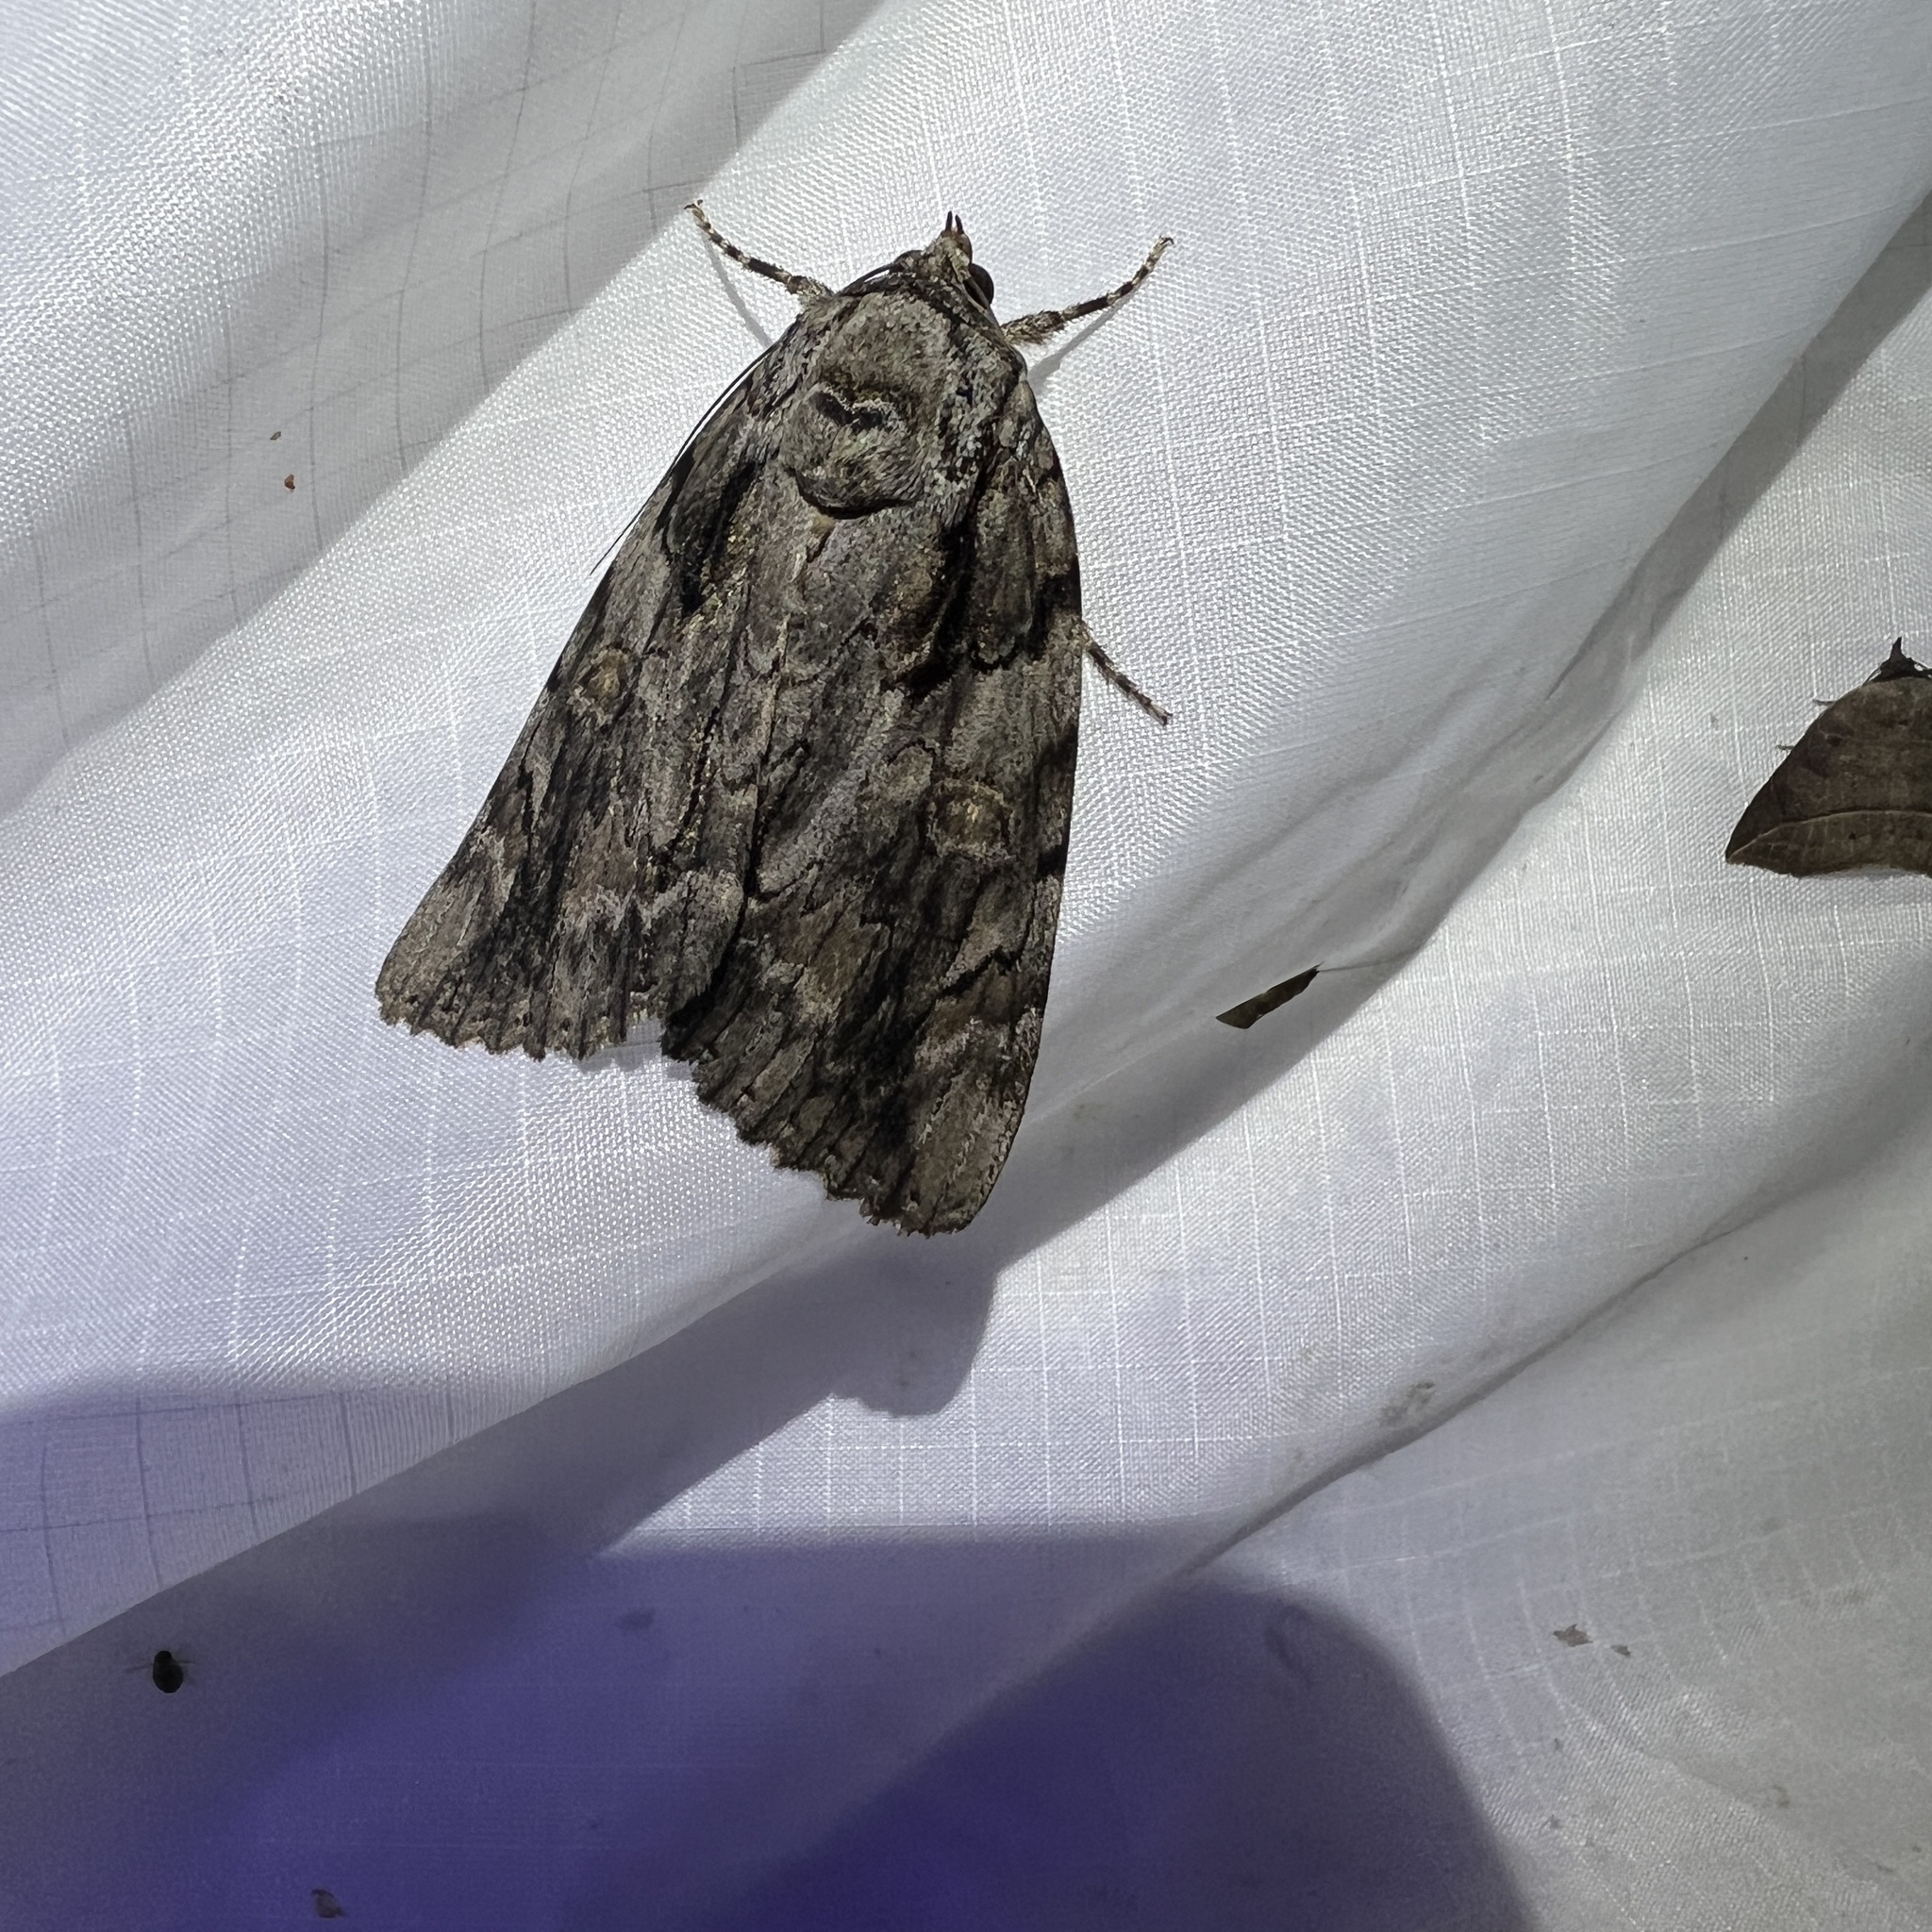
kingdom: Animalia
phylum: Arthropoda
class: Insecta
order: Lepidoptera
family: Erebidae
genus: Catocala
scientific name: Catocala neogama
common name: Bride underwing
